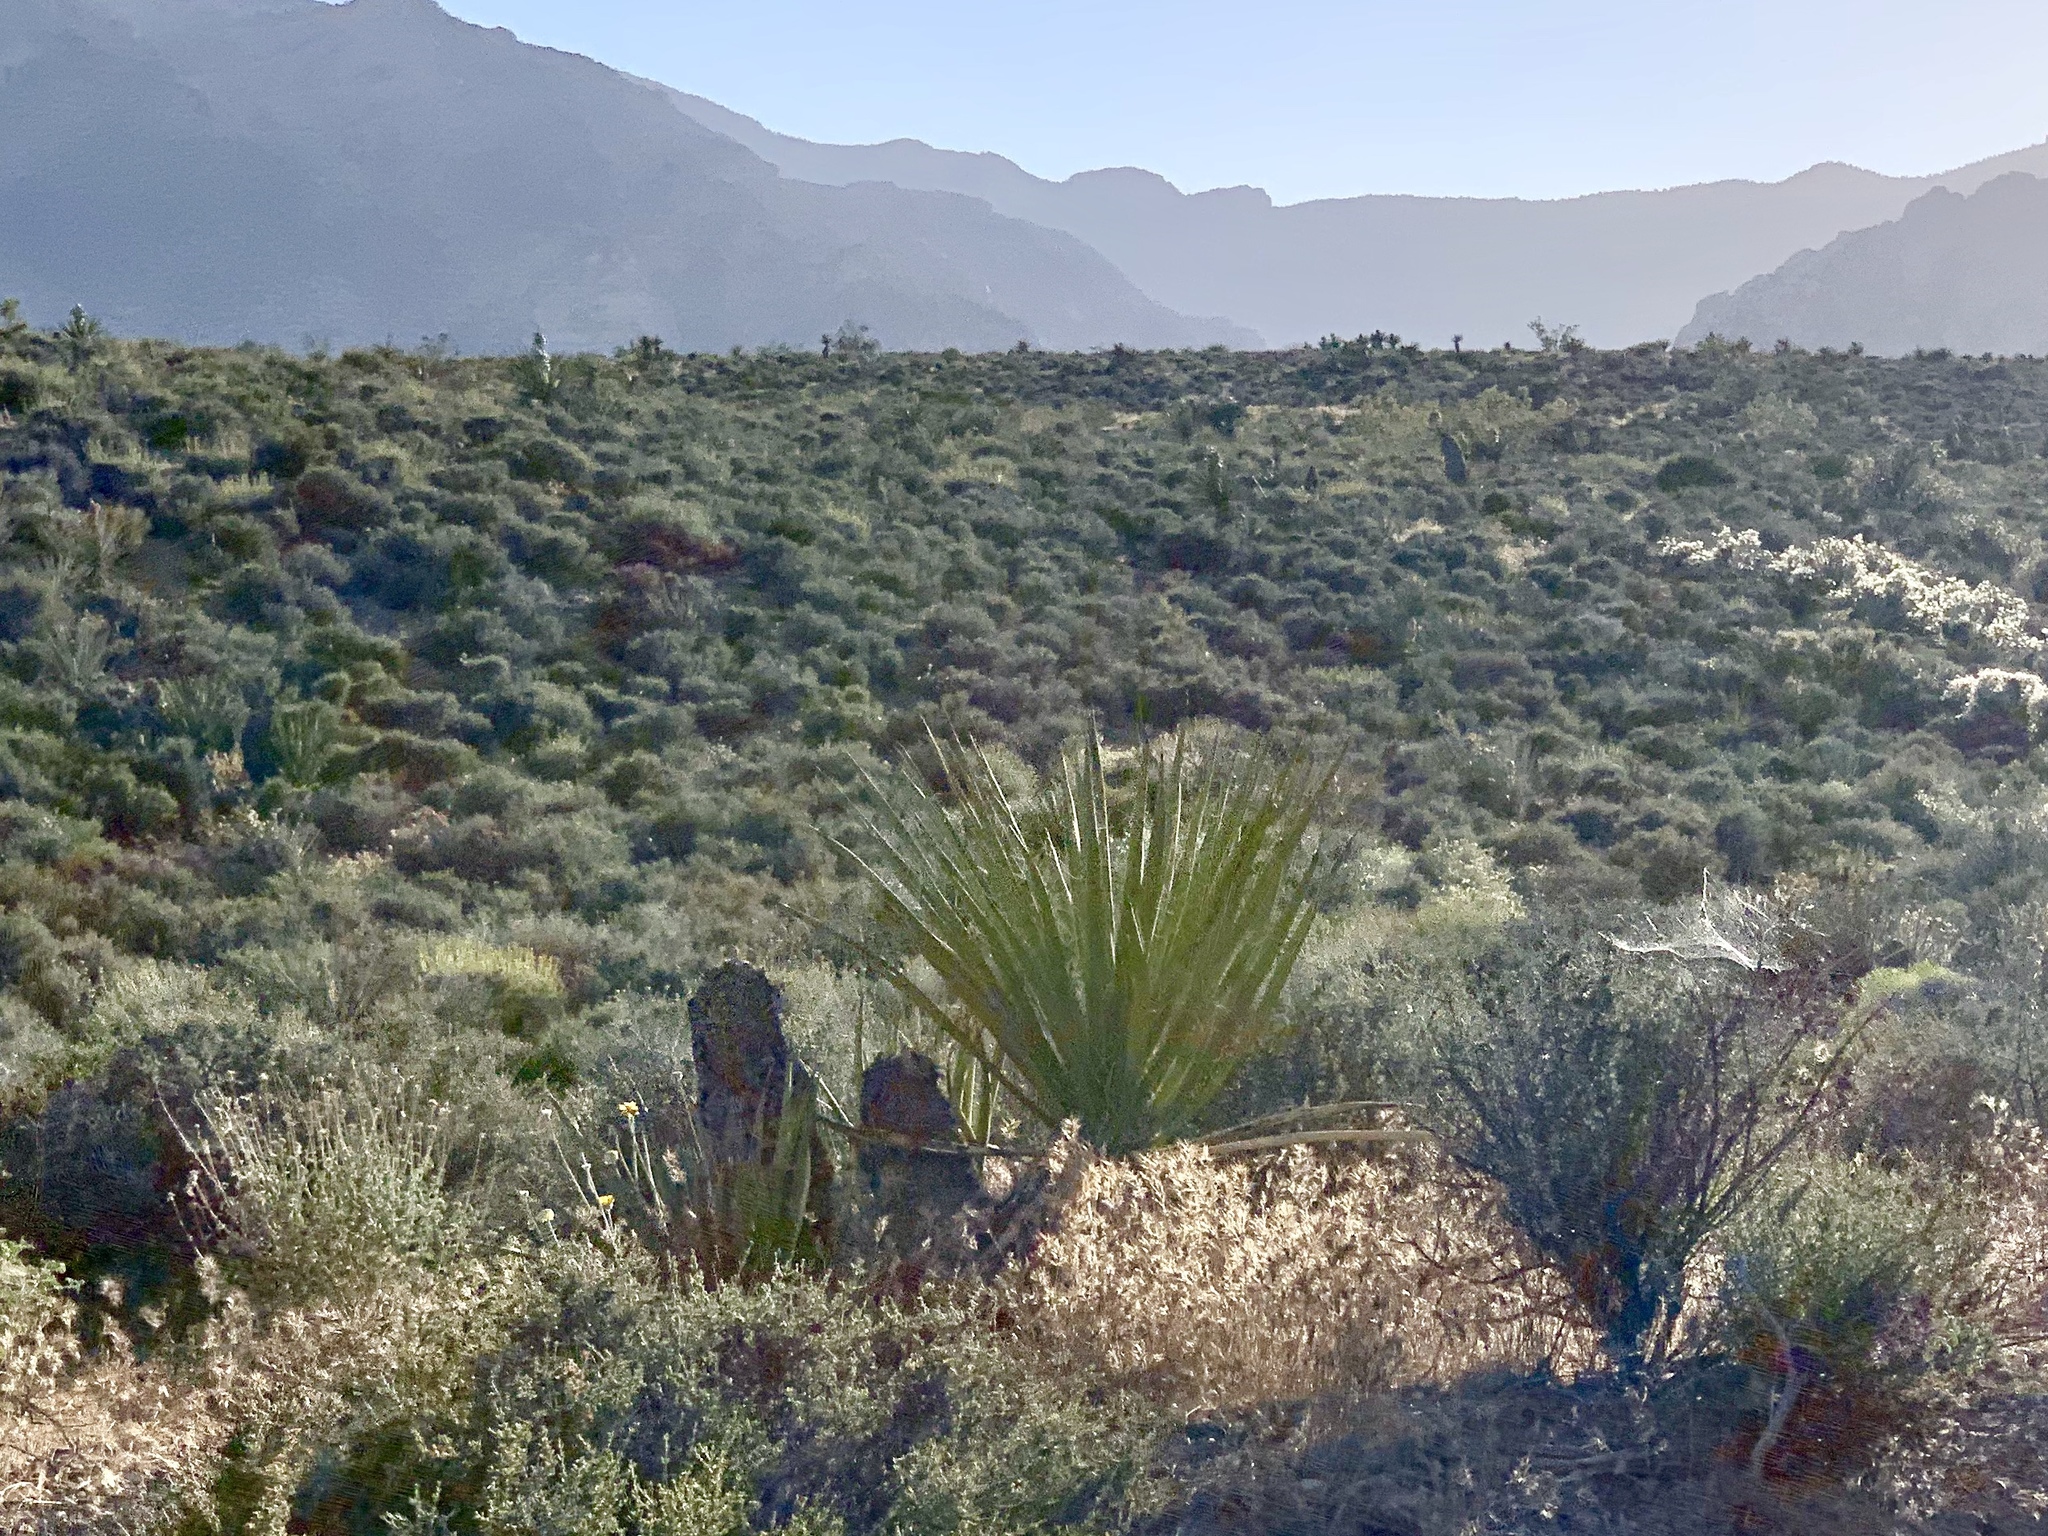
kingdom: Plantae
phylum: Tracheophyta
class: Liliopsida
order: Asparagales
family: Asparagaceae
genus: Yucca
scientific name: Yucca schidigera
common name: Mojave yucca
